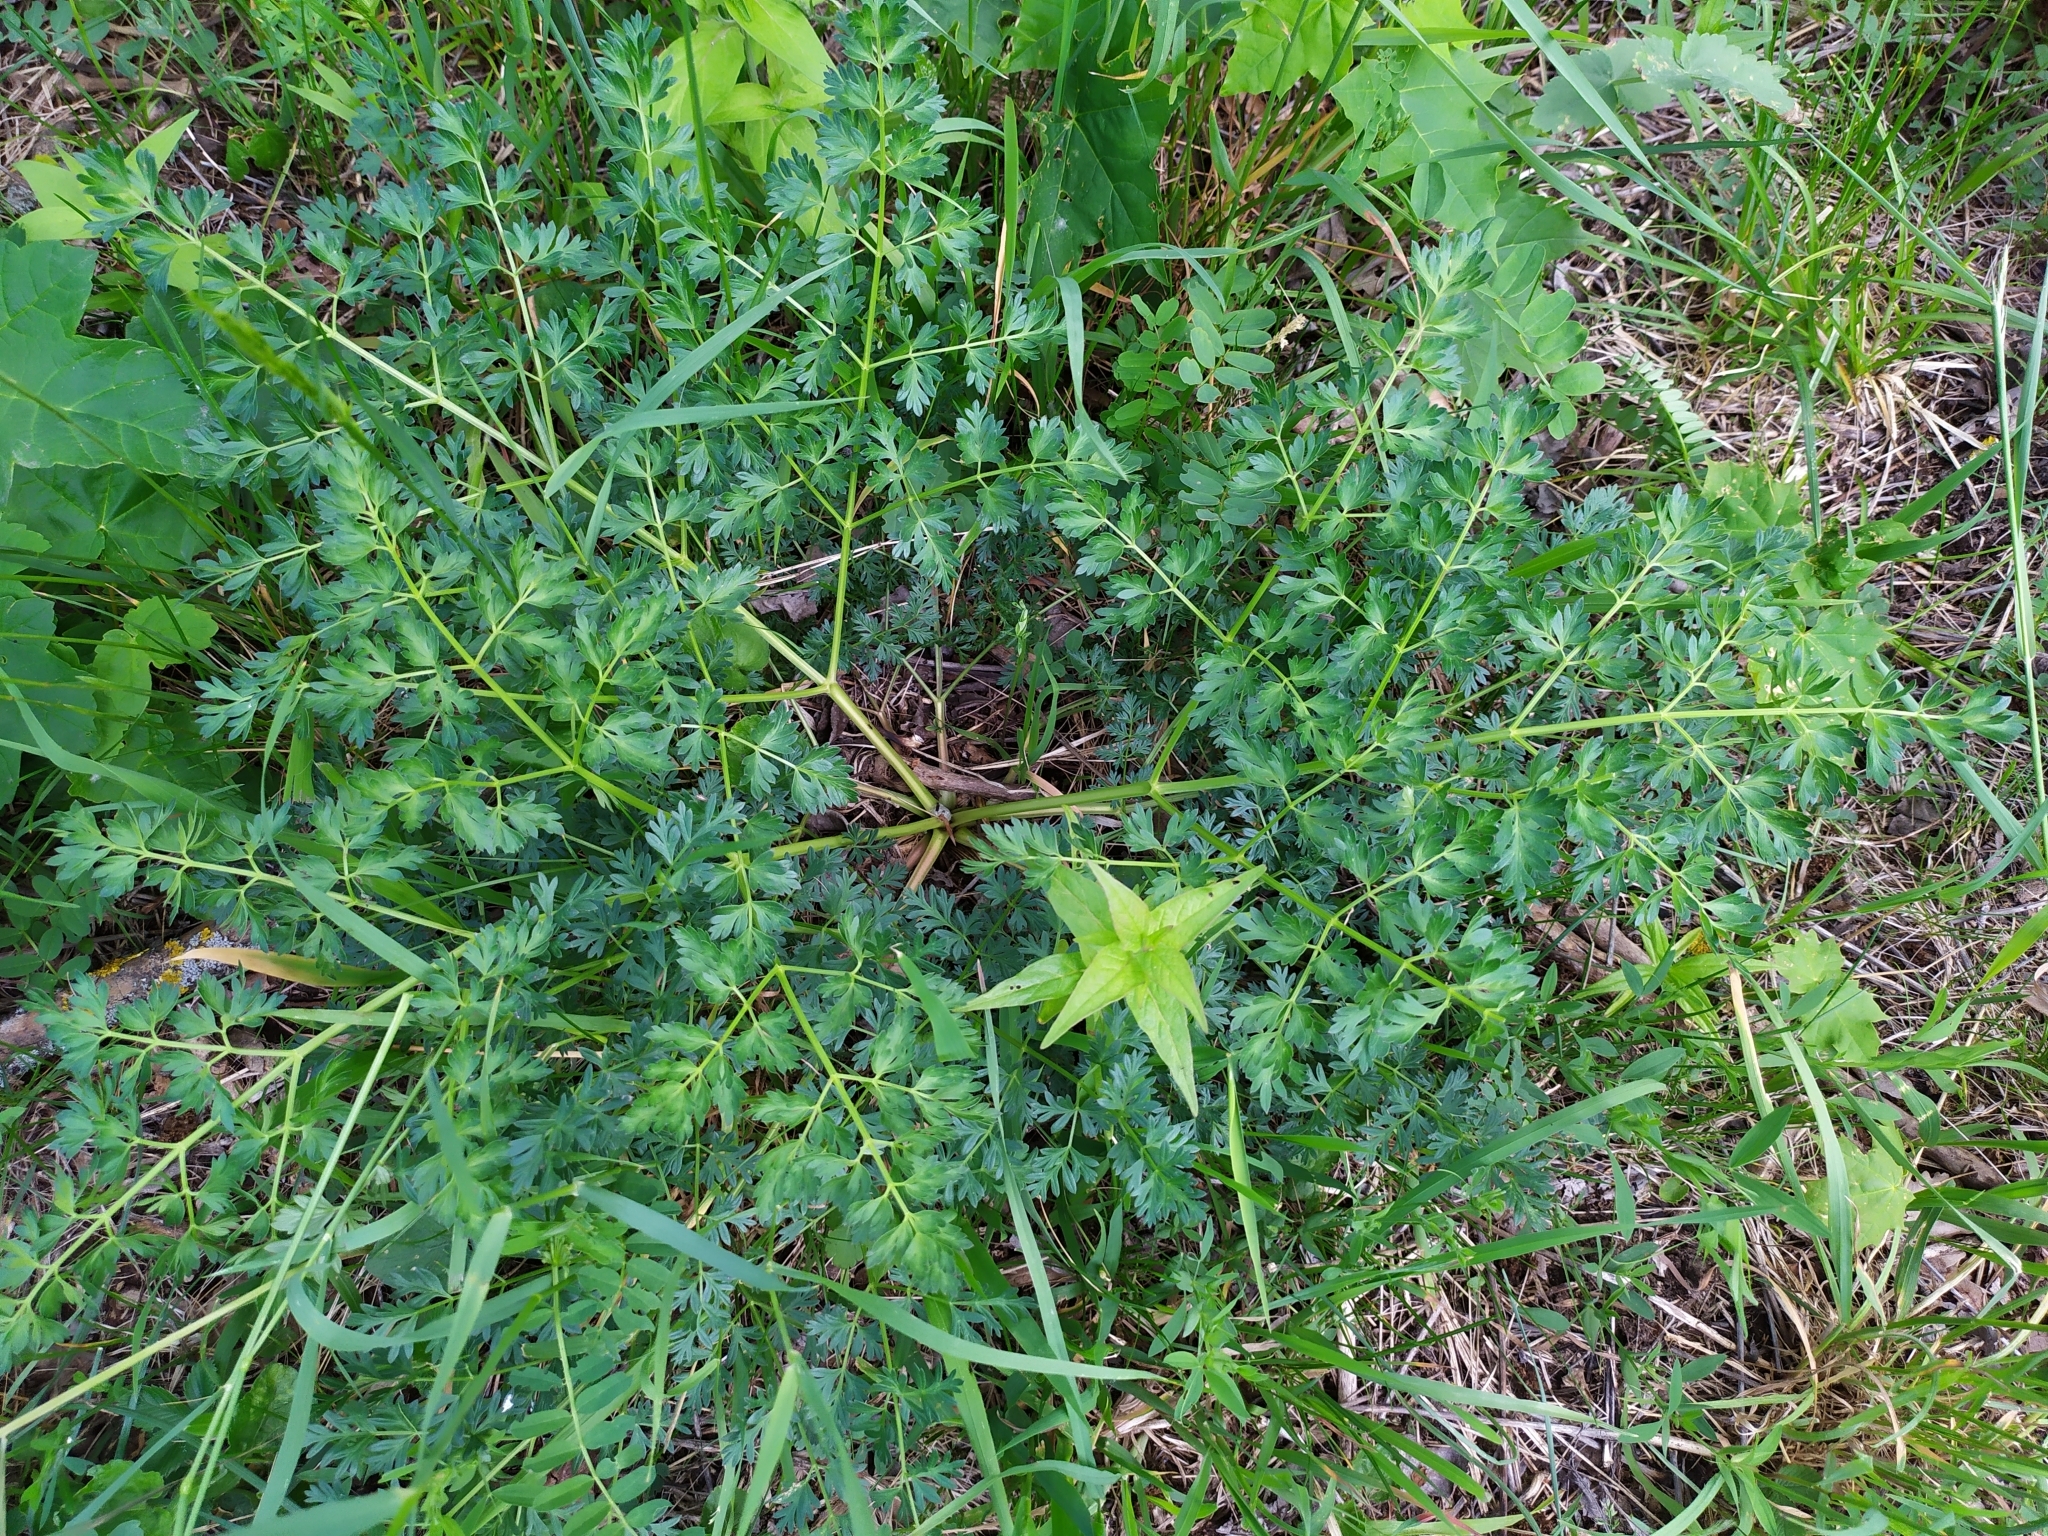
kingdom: Plantae
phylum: Tracheophyta
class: Magnoliopsida
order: Apiales
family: Apiaceae
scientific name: Apiaceae
